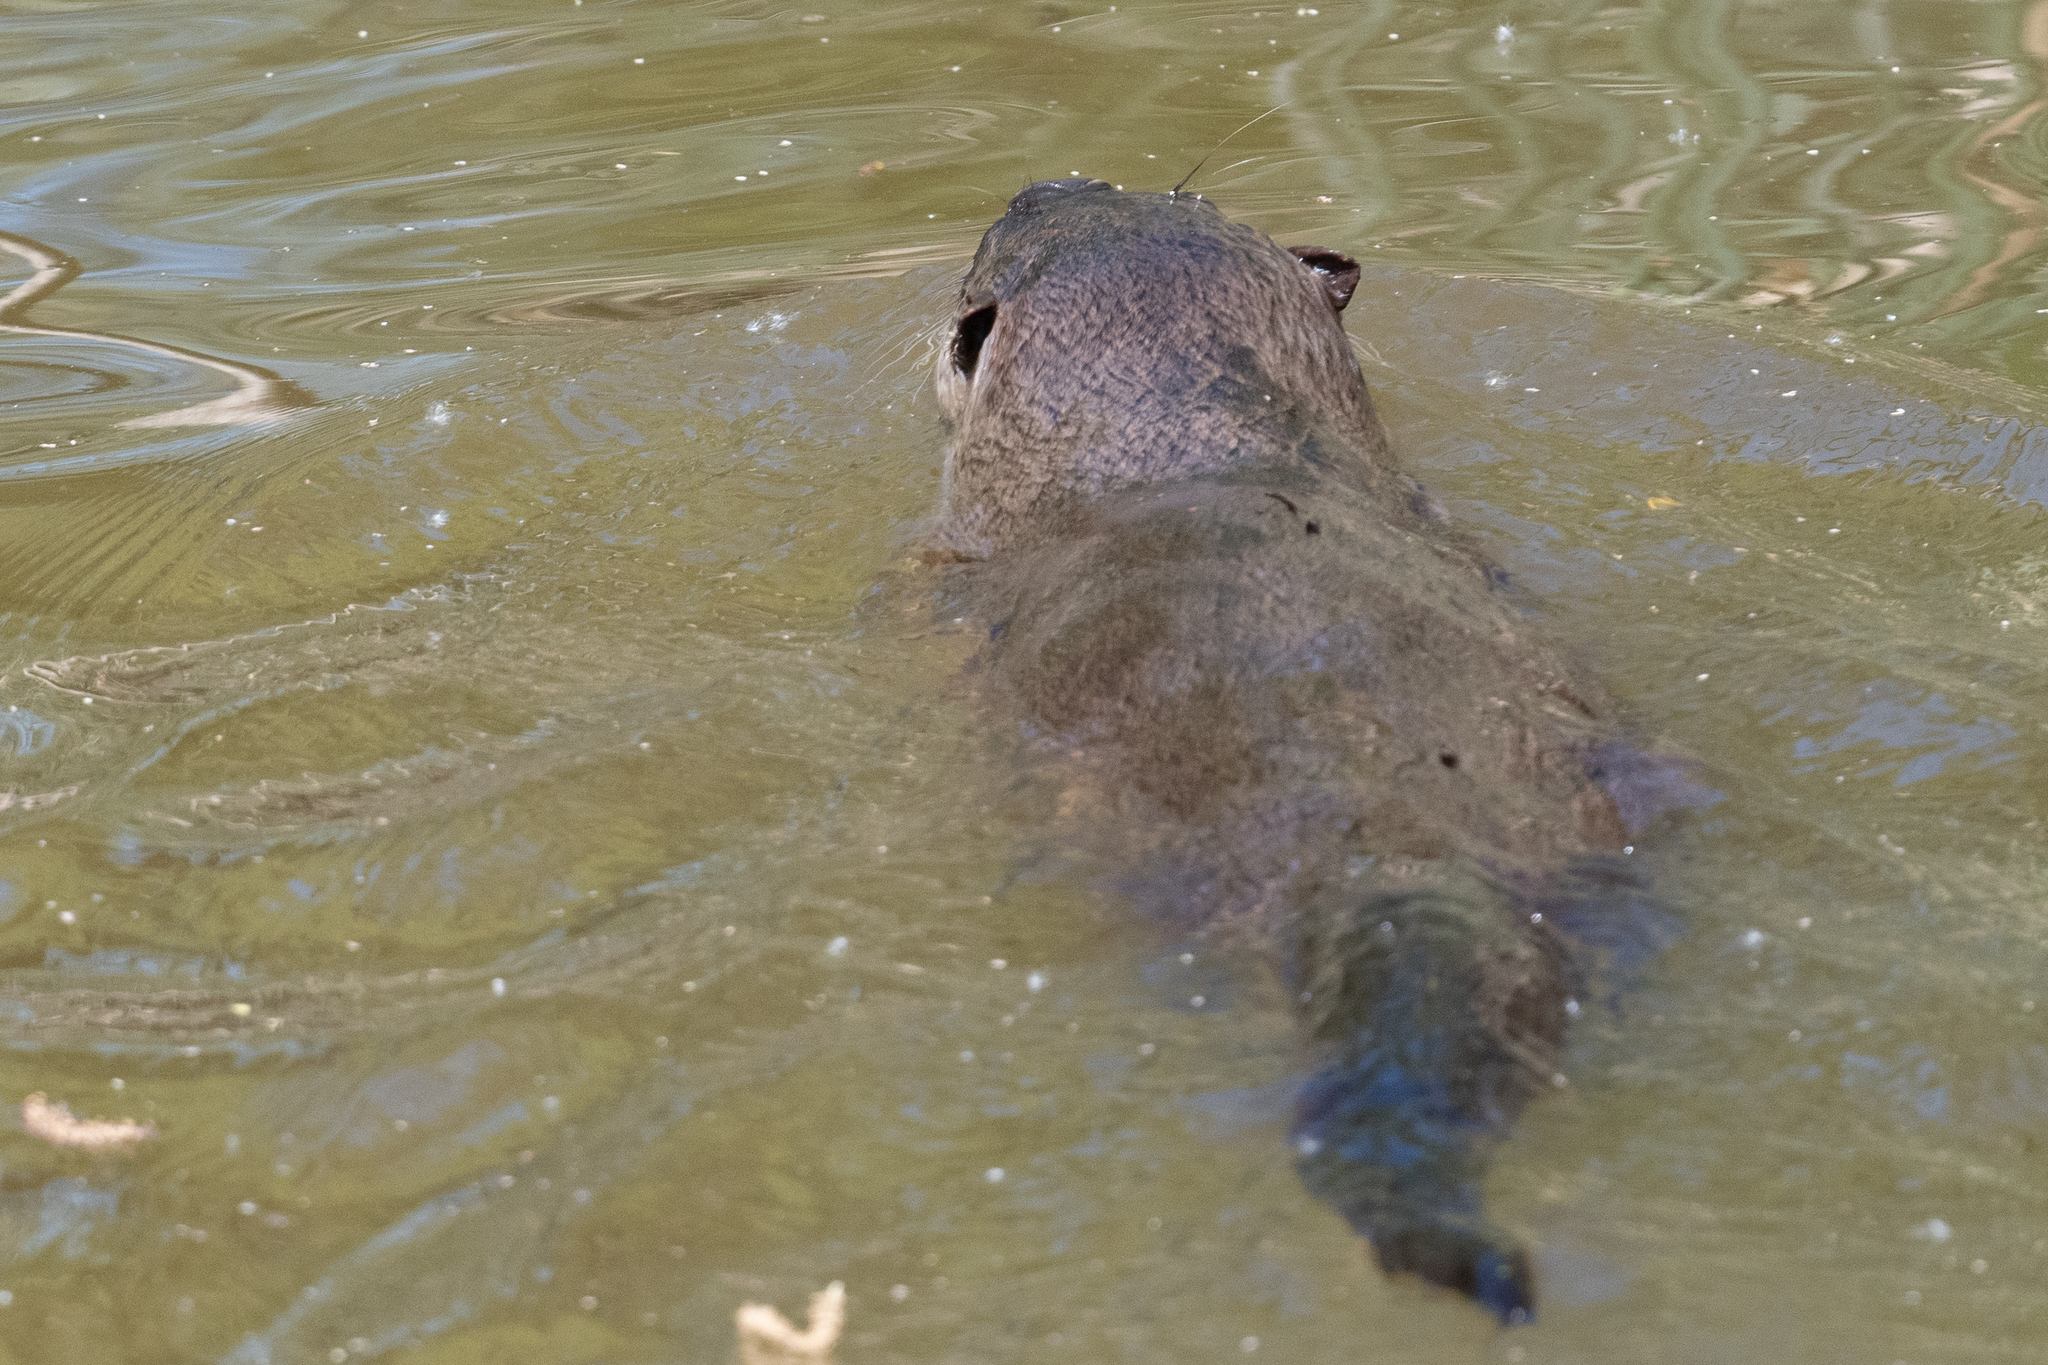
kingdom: Animalia
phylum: Chordata
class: Mammalia
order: Carnivora
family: Mustelidae
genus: Lontra
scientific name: Lontra canadensis
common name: North american river otter
